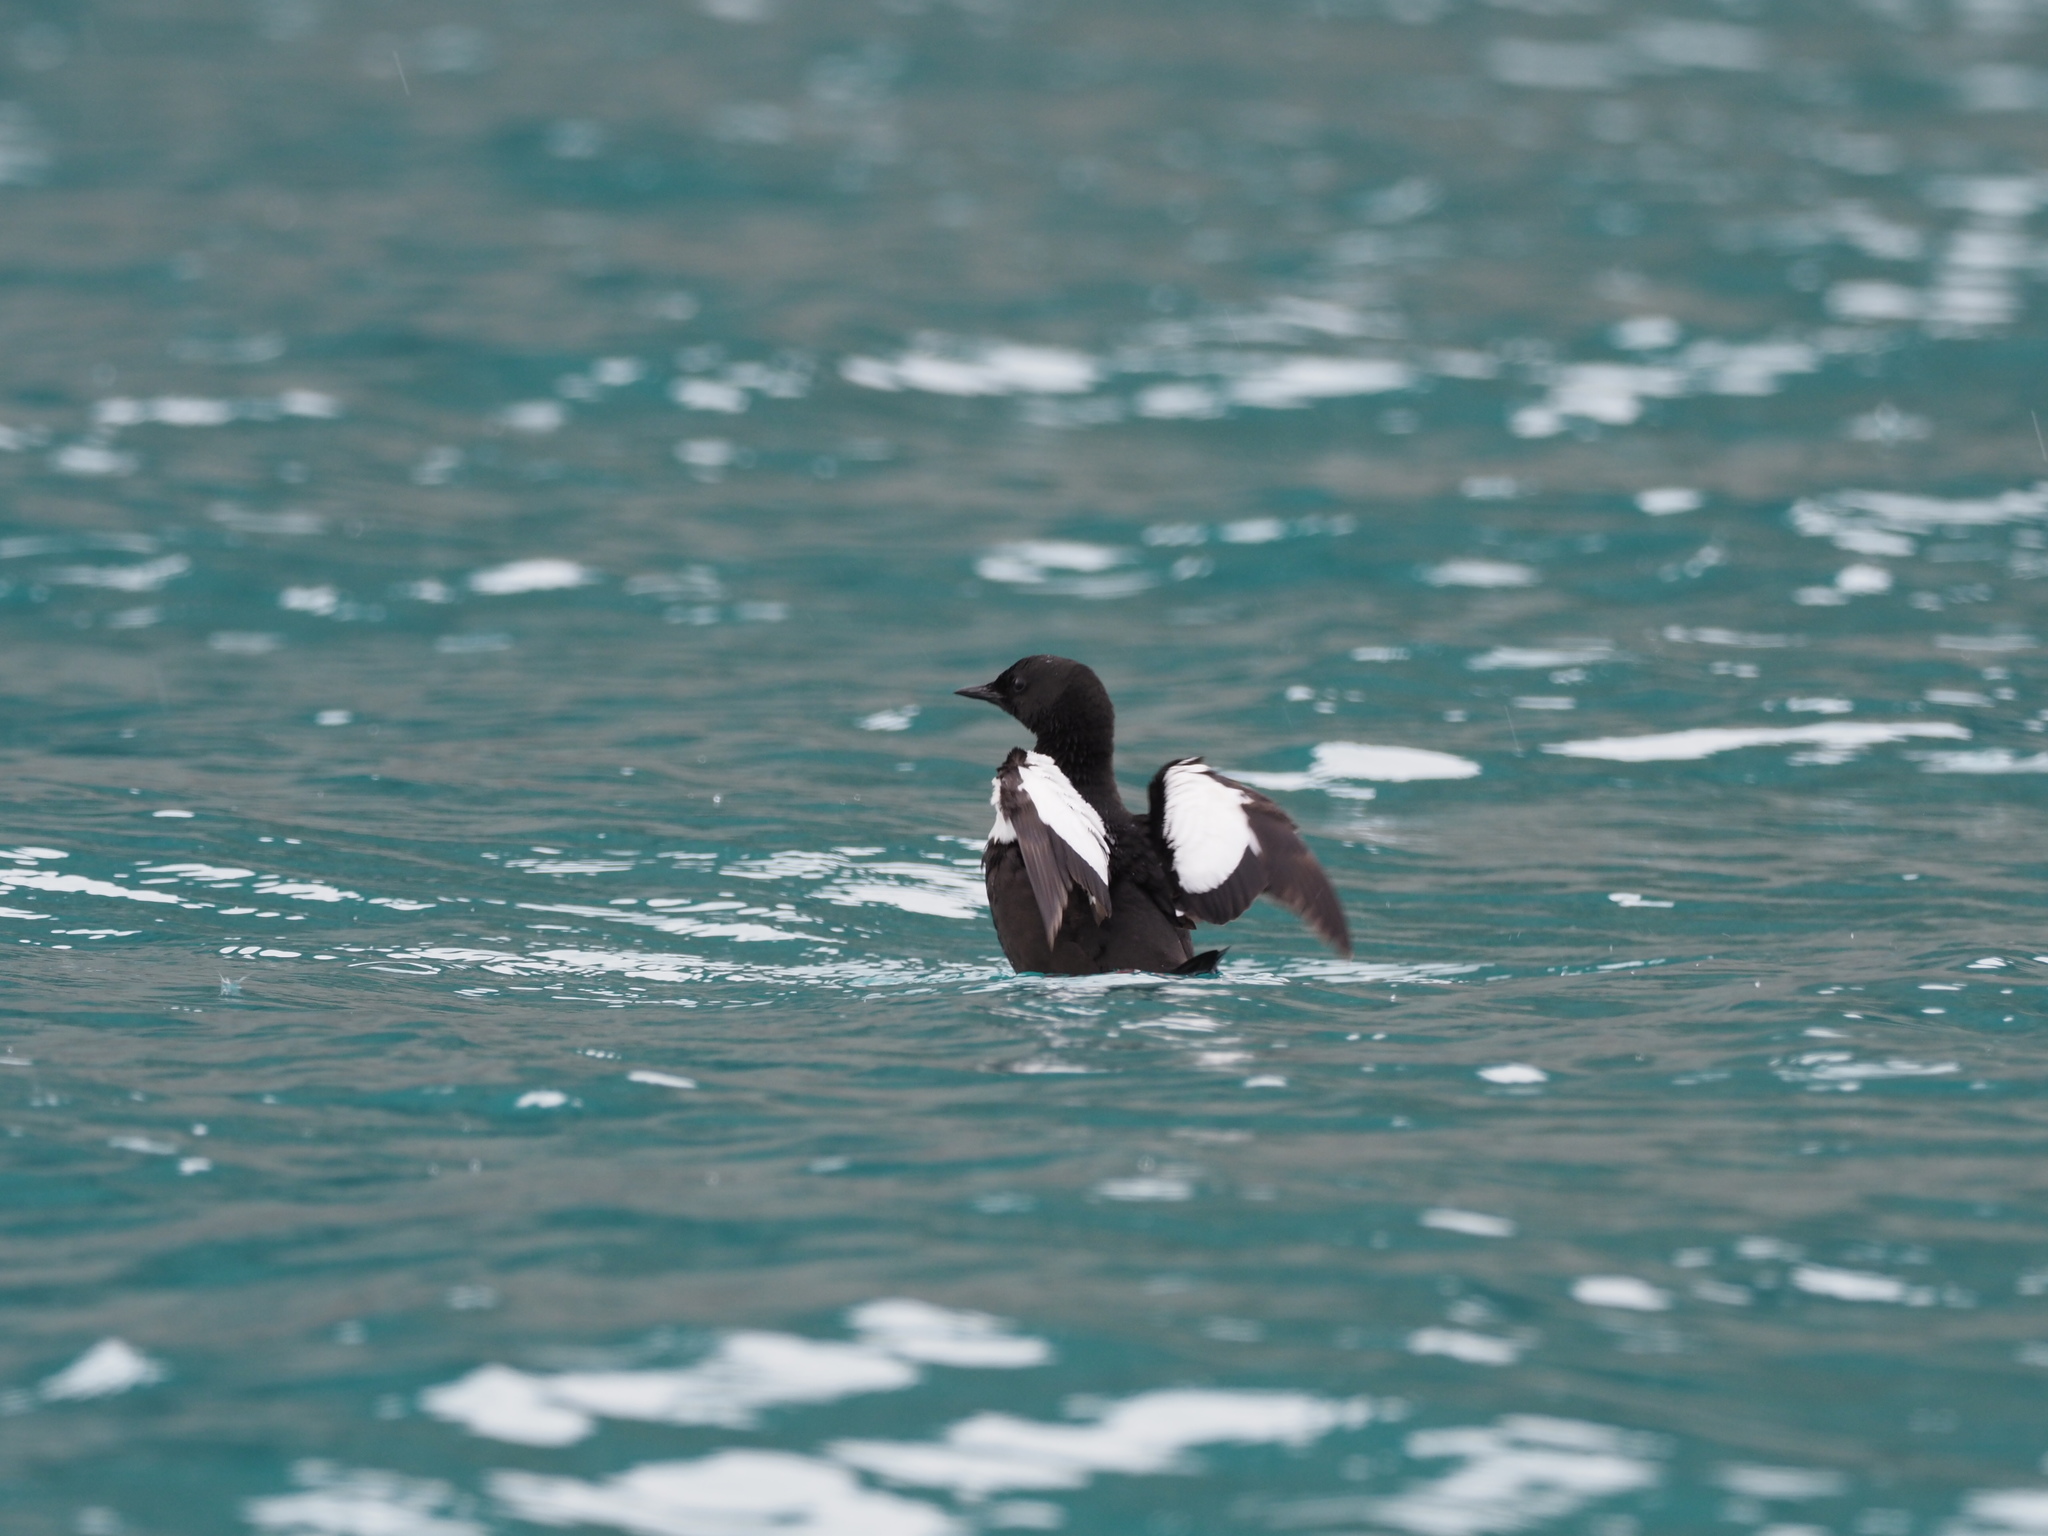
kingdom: Animalia
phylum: Chordata
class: Aves
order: Charadriiformes
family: Alcidae
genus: Cepphus
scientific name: Cepphus grylle
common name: Black guillemot
